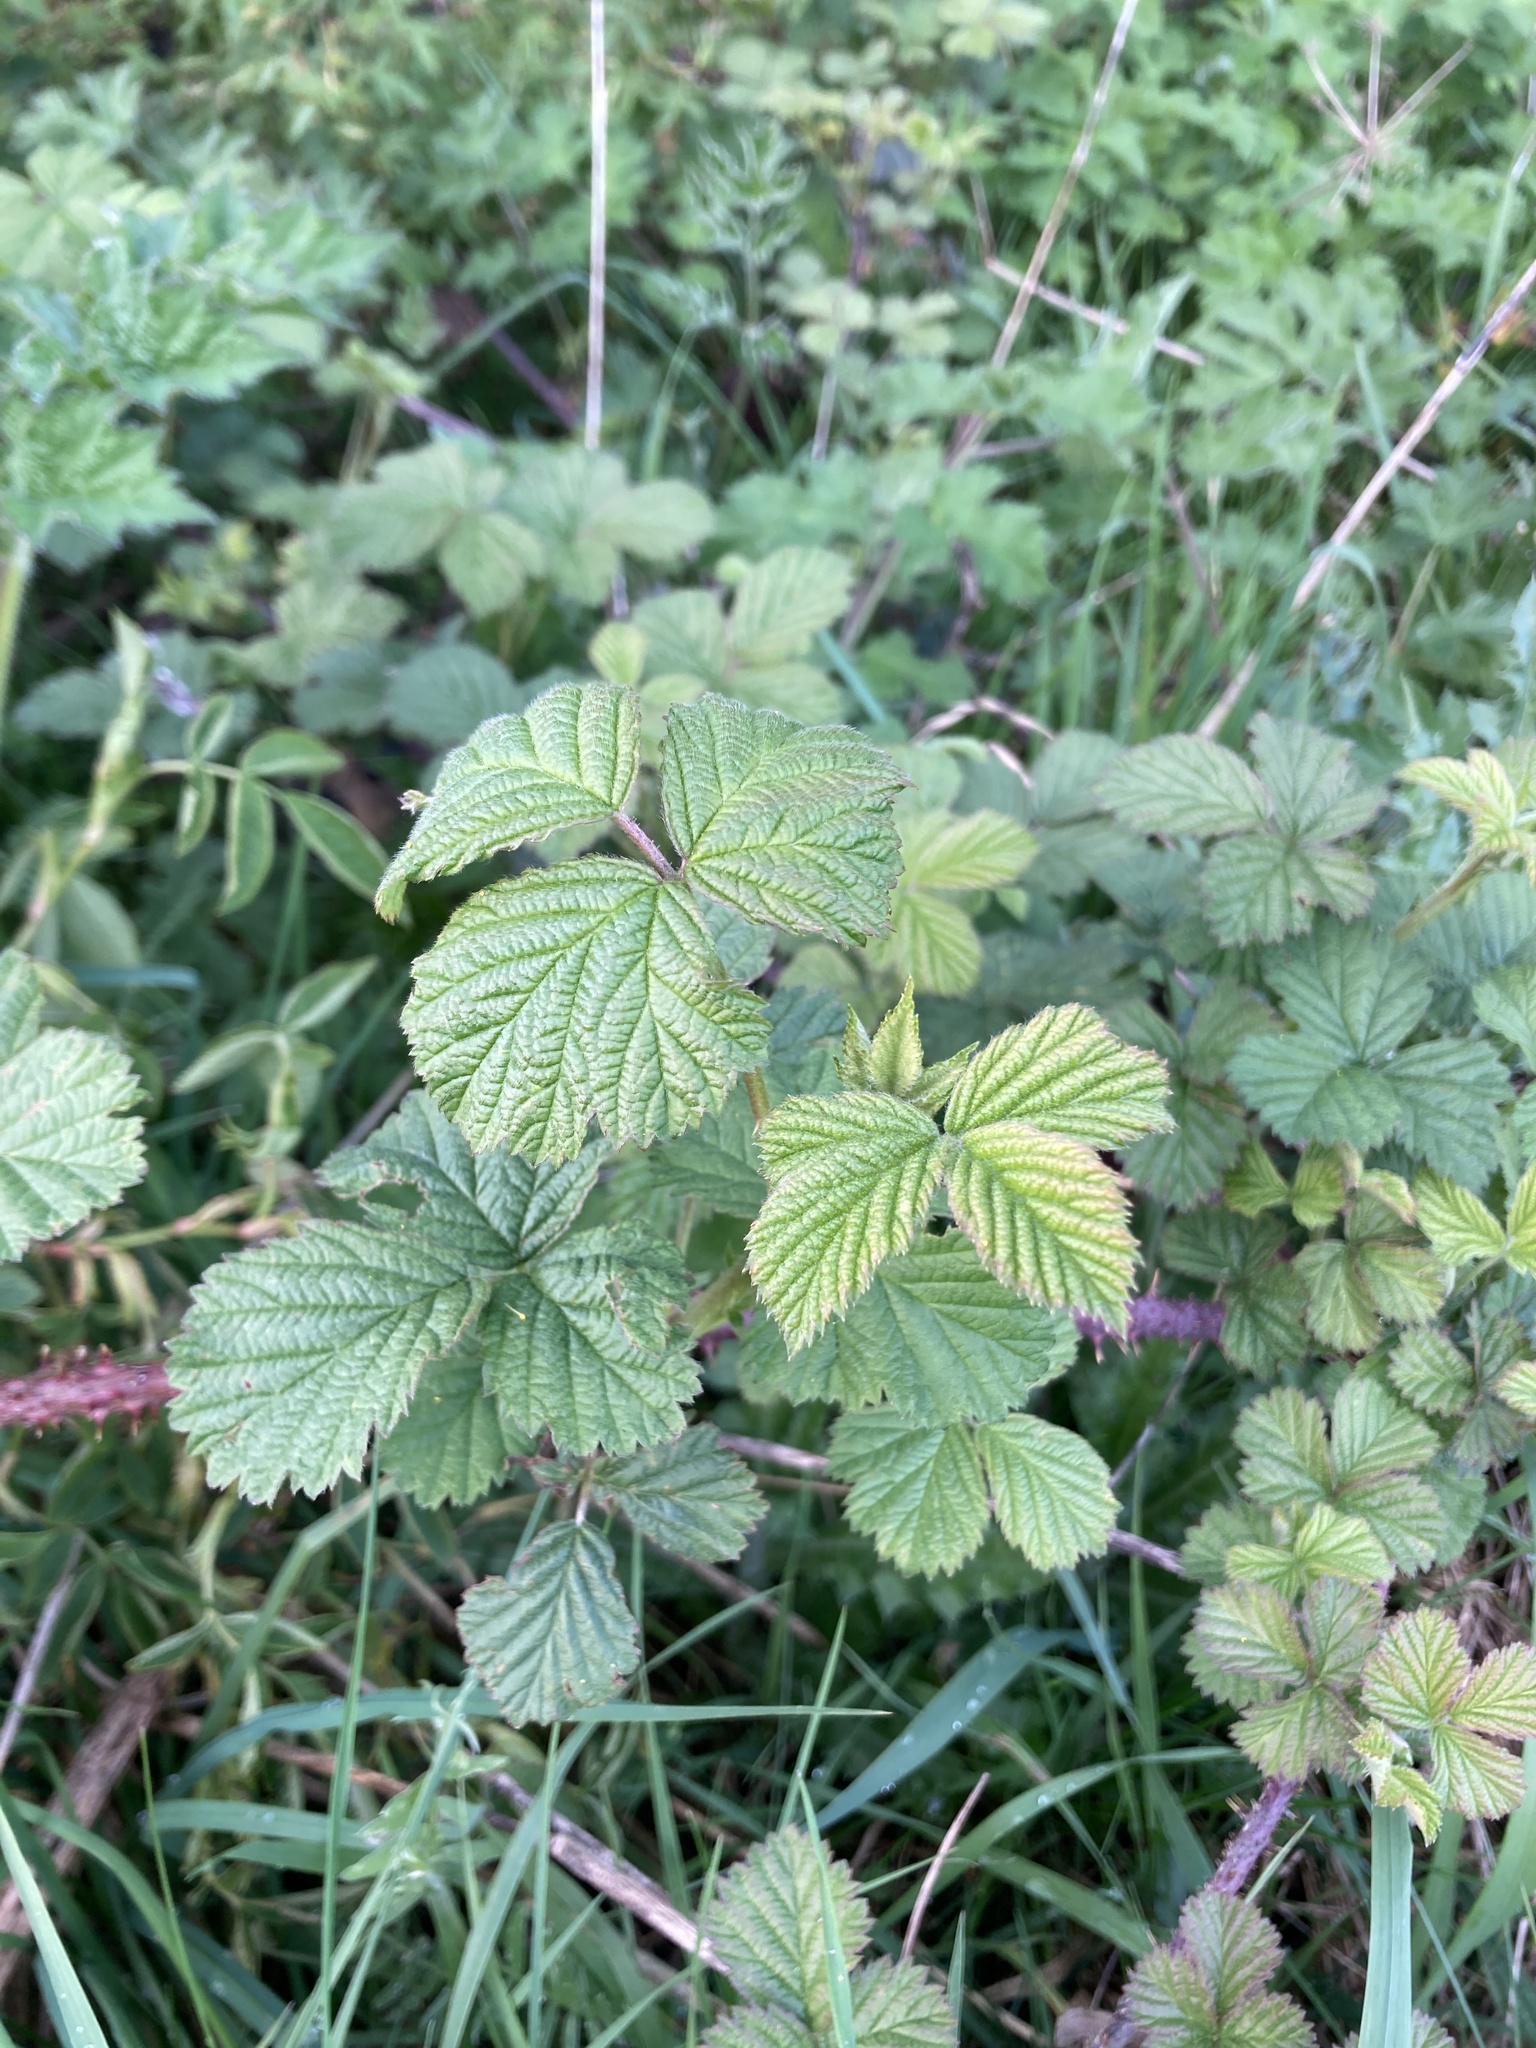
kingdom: Plantae
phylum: Tracheophyta
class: Magnoliopsida
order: Rosales
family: Rosaceae
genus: Rubus
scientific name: Rubus fruticosus
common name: Blackberry, bramble
